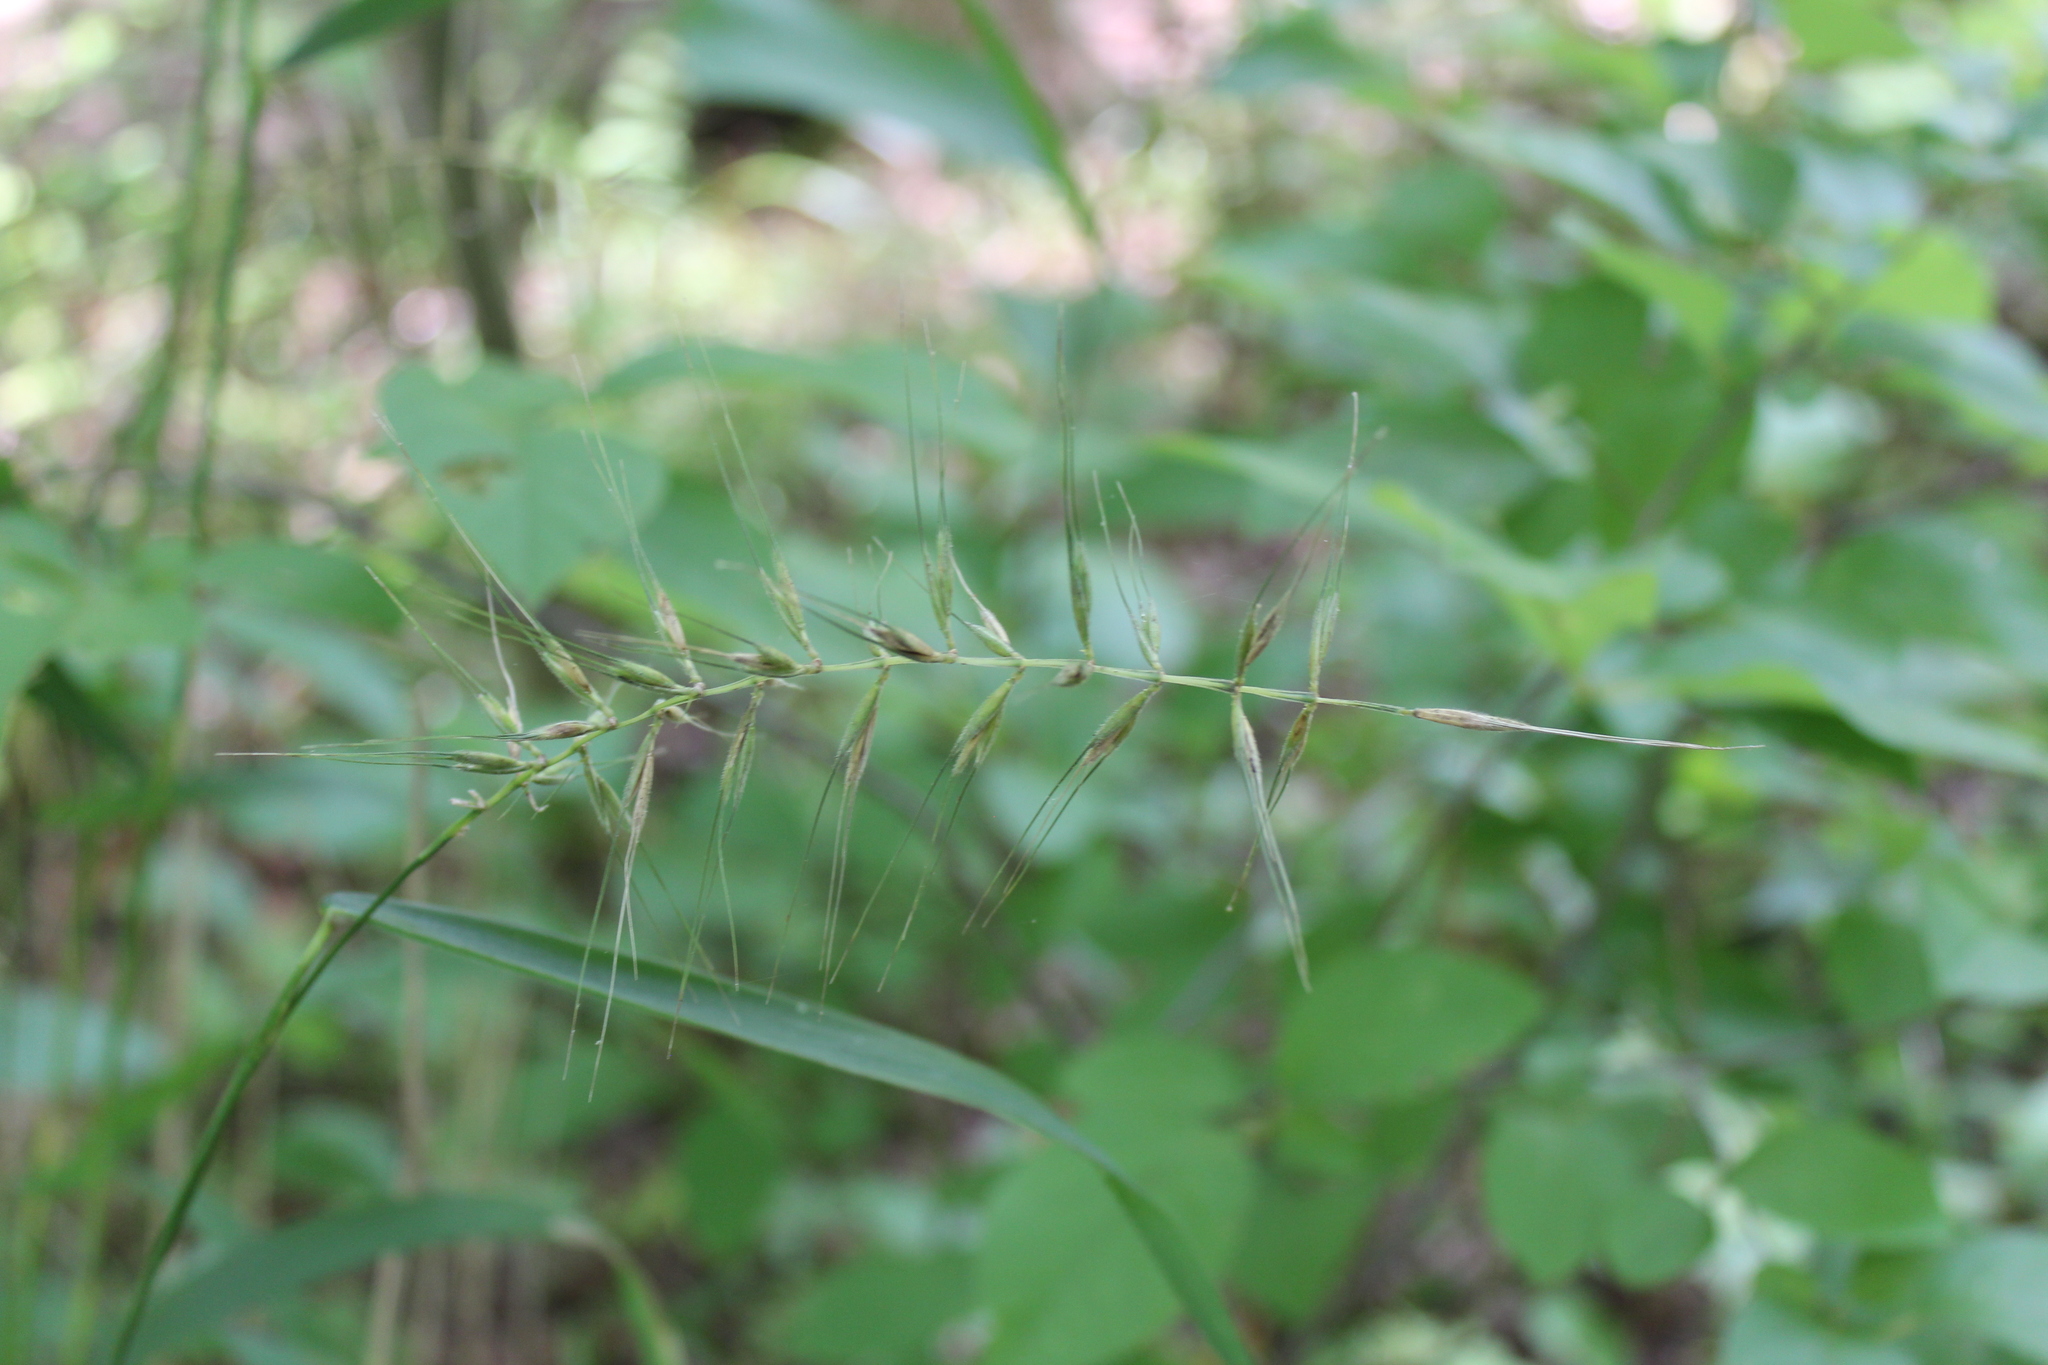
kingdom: Plantae
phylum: Tracheophyta
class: Liliopsida
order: Poales
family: Poaceae
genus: Elymus
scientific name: Elymus hystrix
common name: Bottlebrush grass
